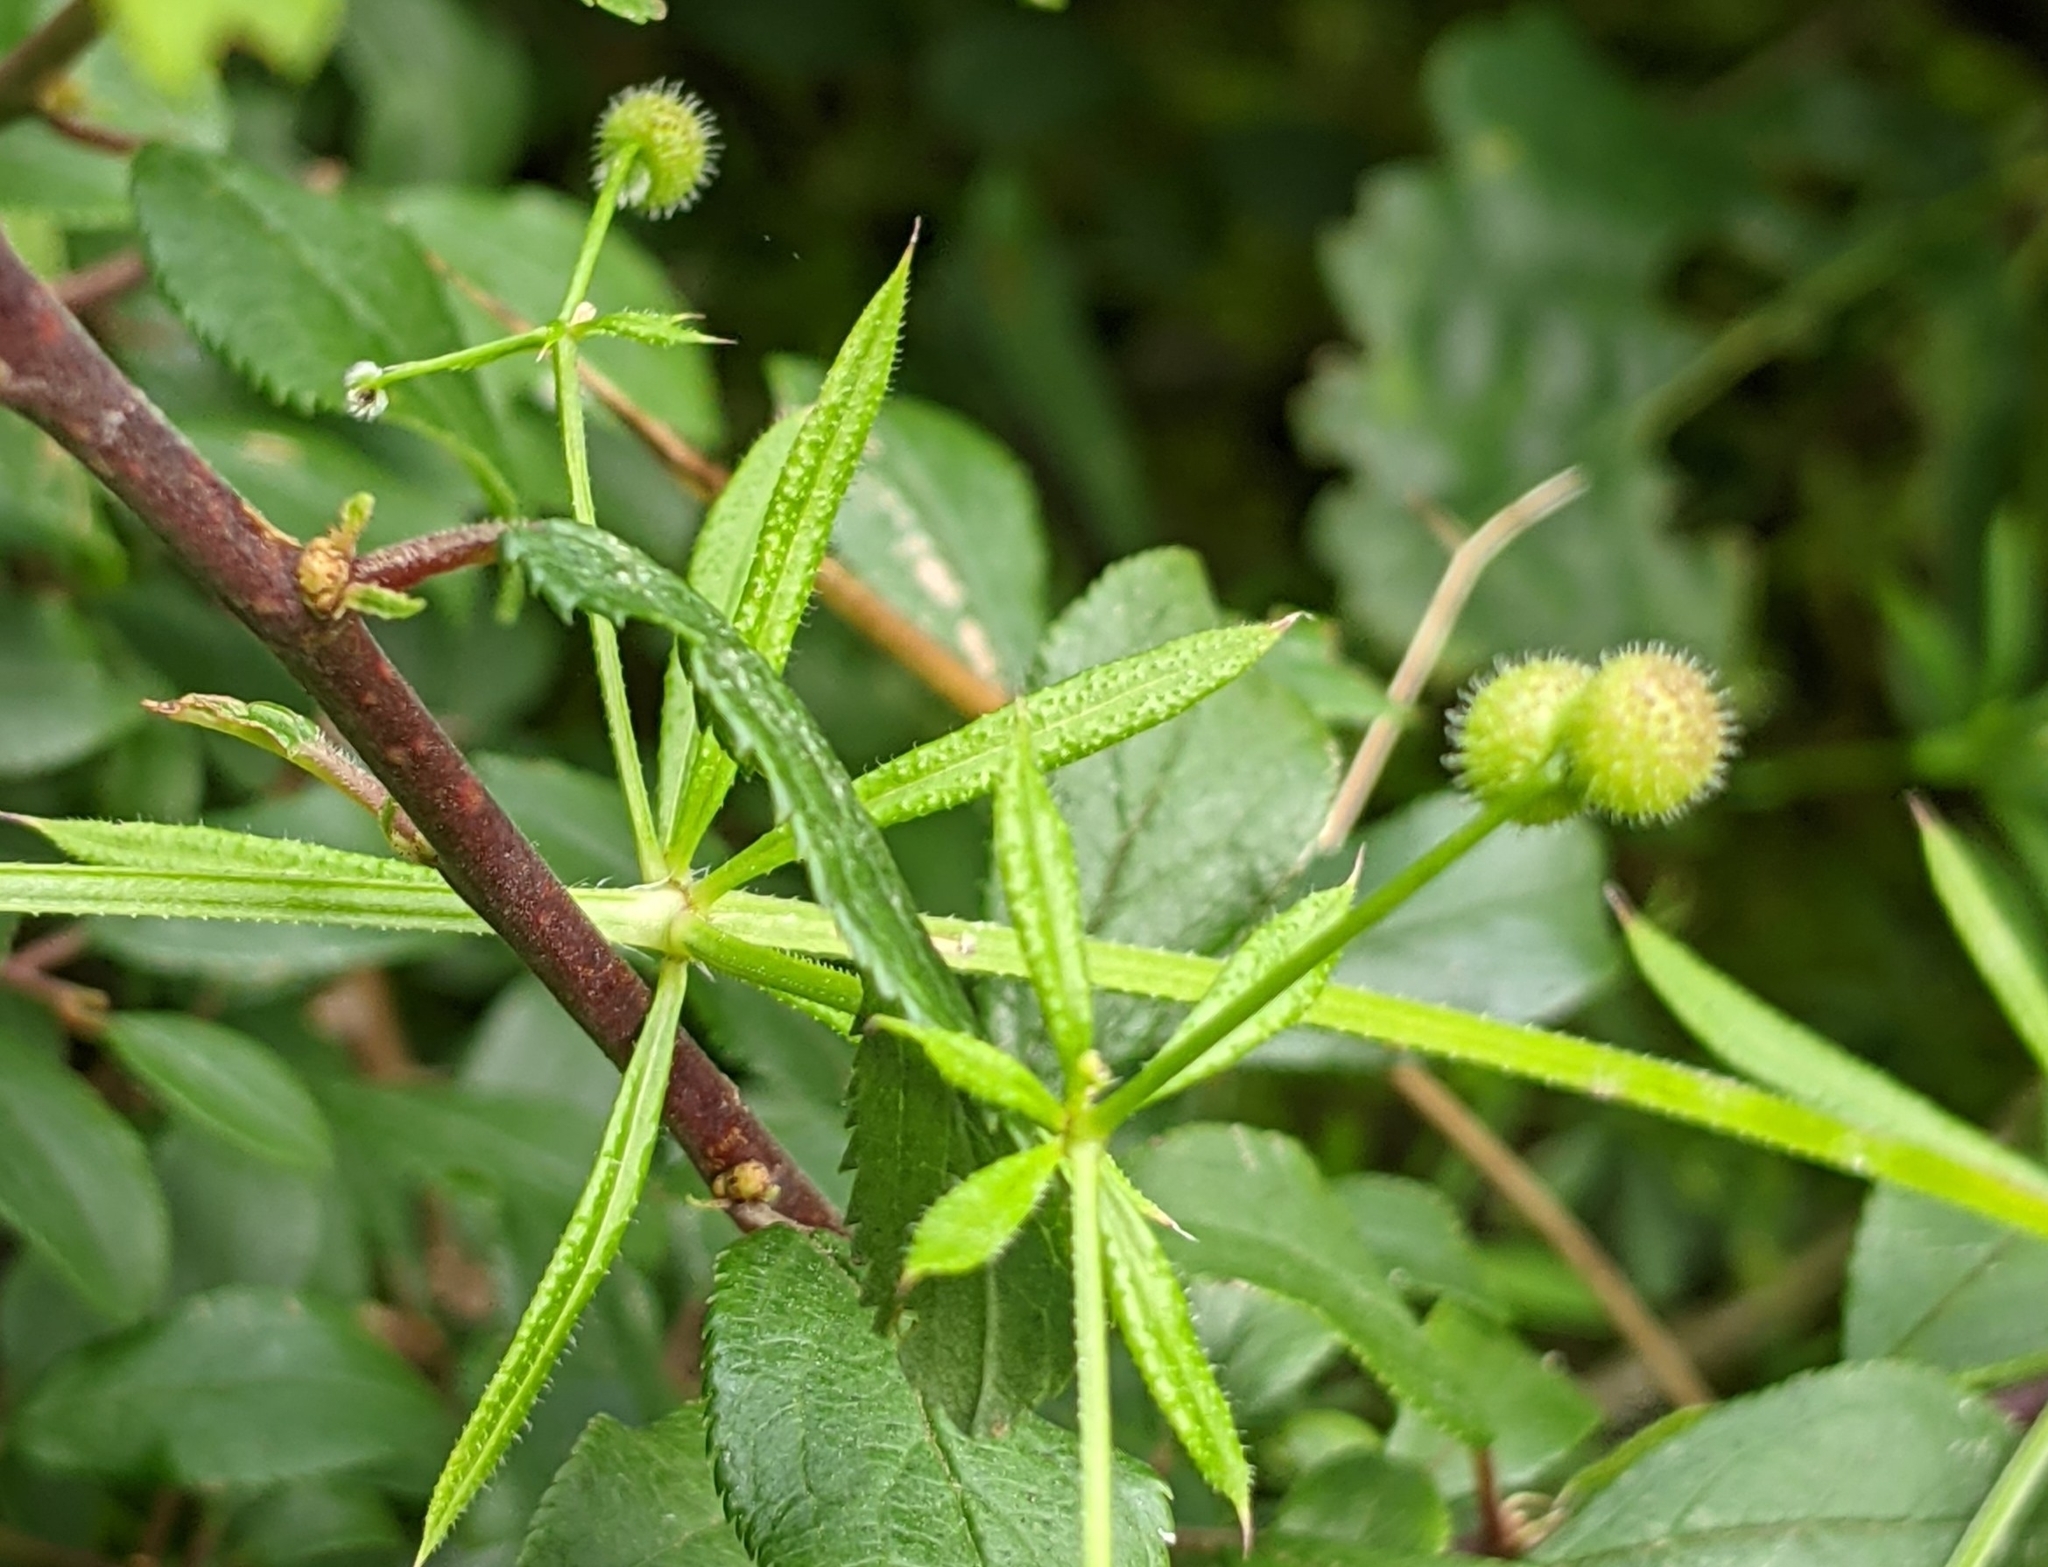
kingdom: Plantae
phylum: Tracheophyta
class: Magnoliopsida
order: Gentianales
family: Rubiaceae
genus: Galium
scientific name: Galium aparine
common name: Cleavers
